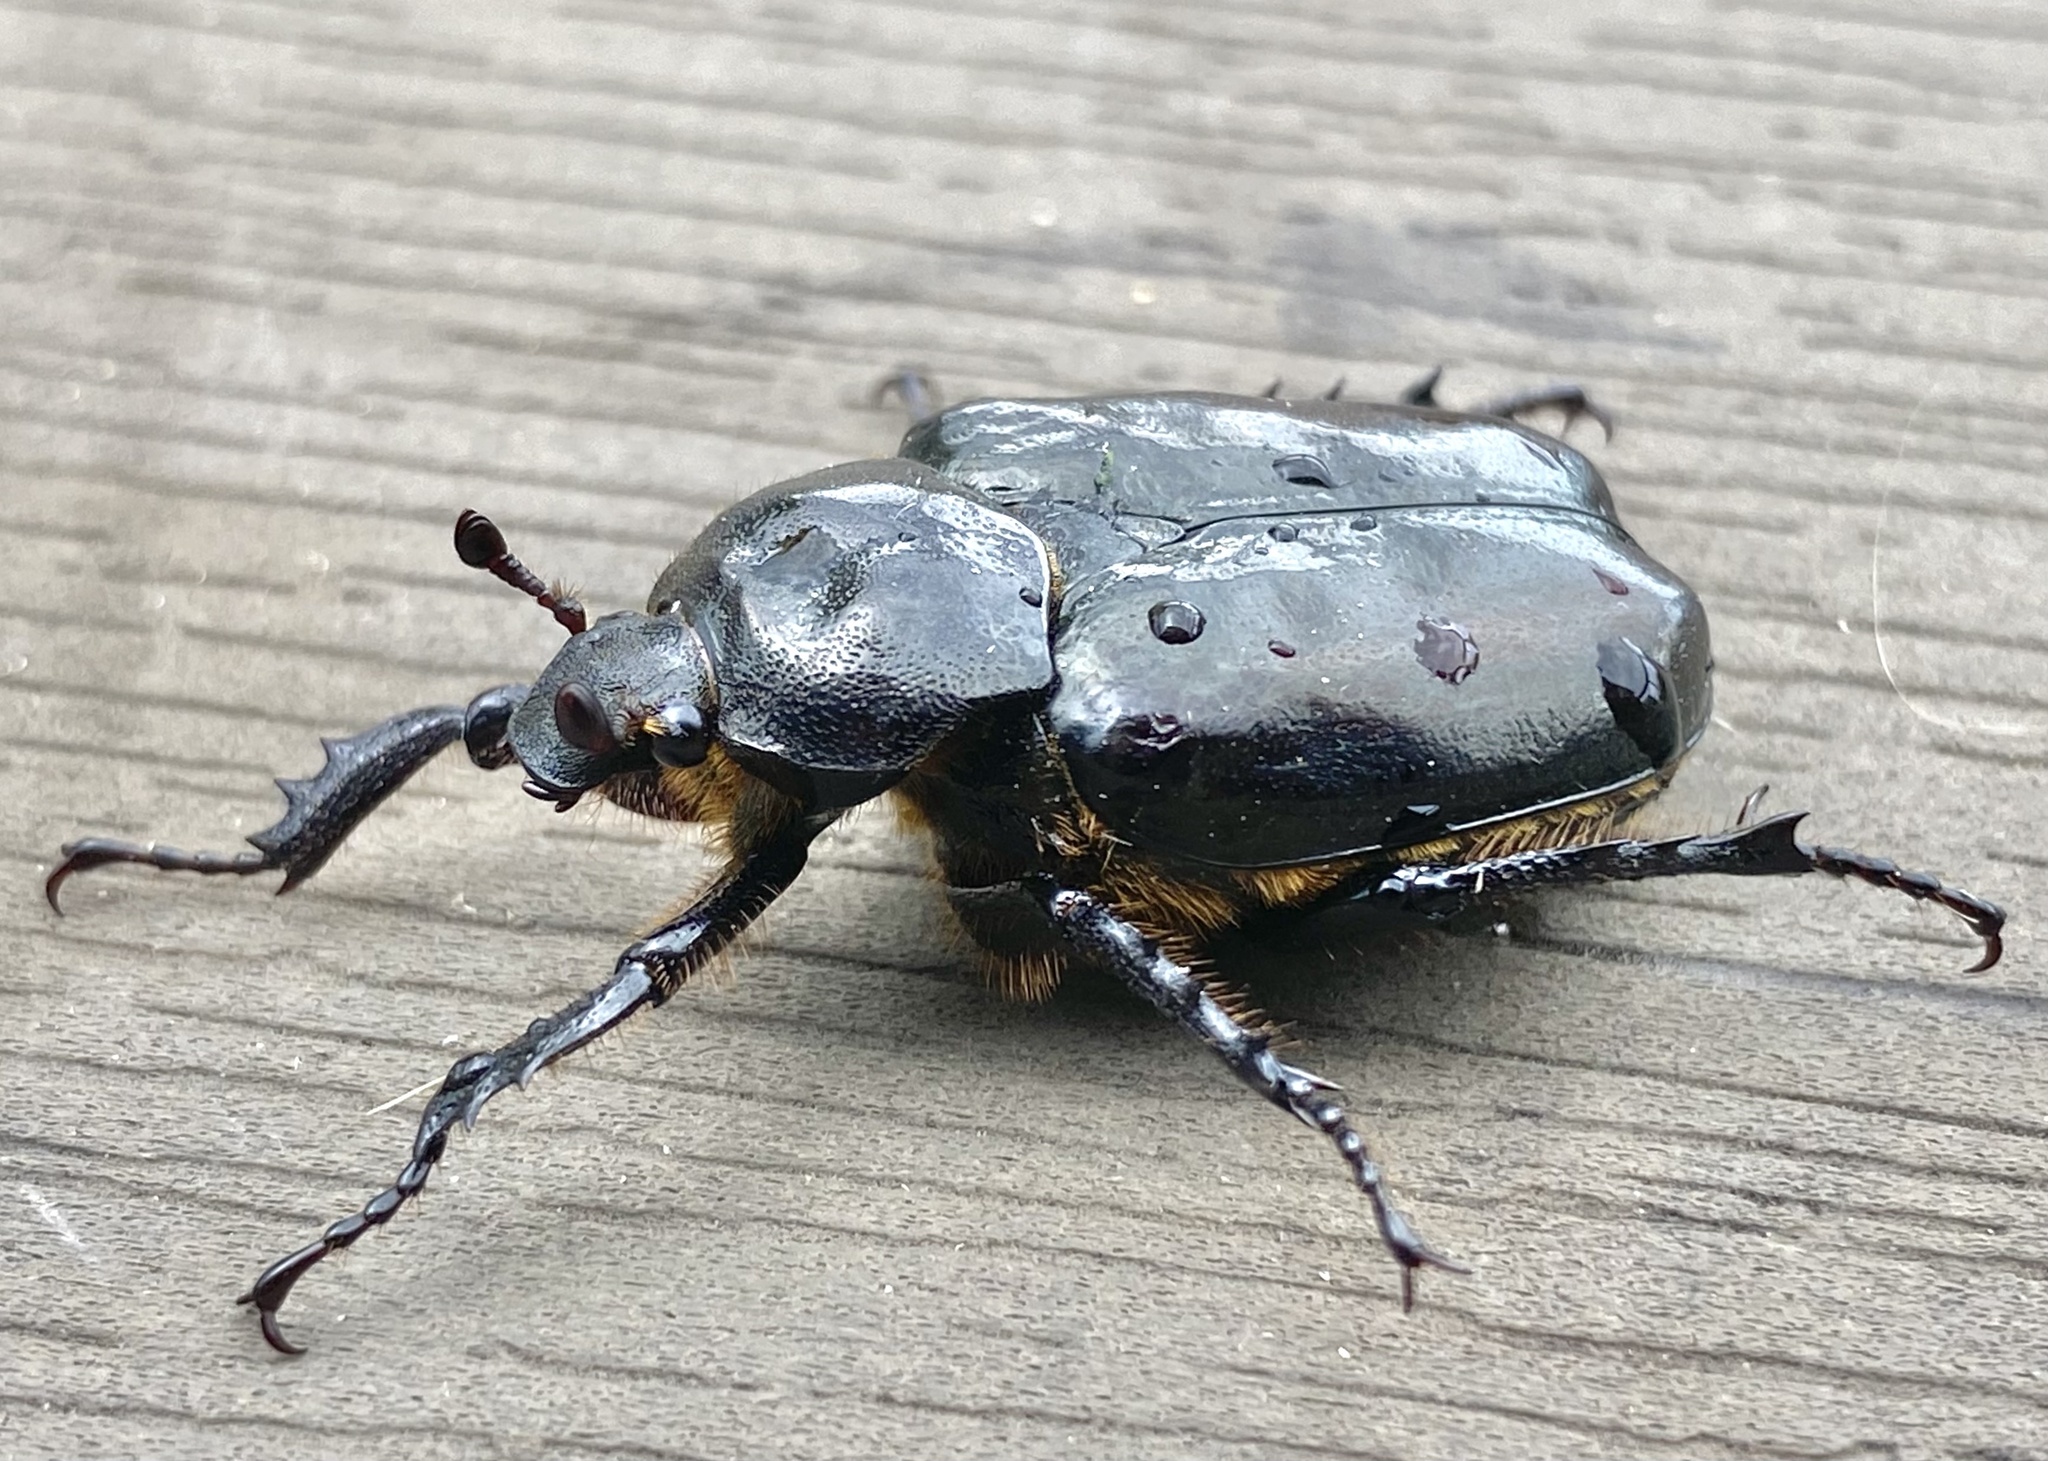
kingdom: Animalia
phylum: Arthropoda
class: Insecta
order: Coleoptera
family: Scarabaeidae
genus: Osmoderma
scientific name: Osmoderma eremicola
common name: Hermit flower beetle
